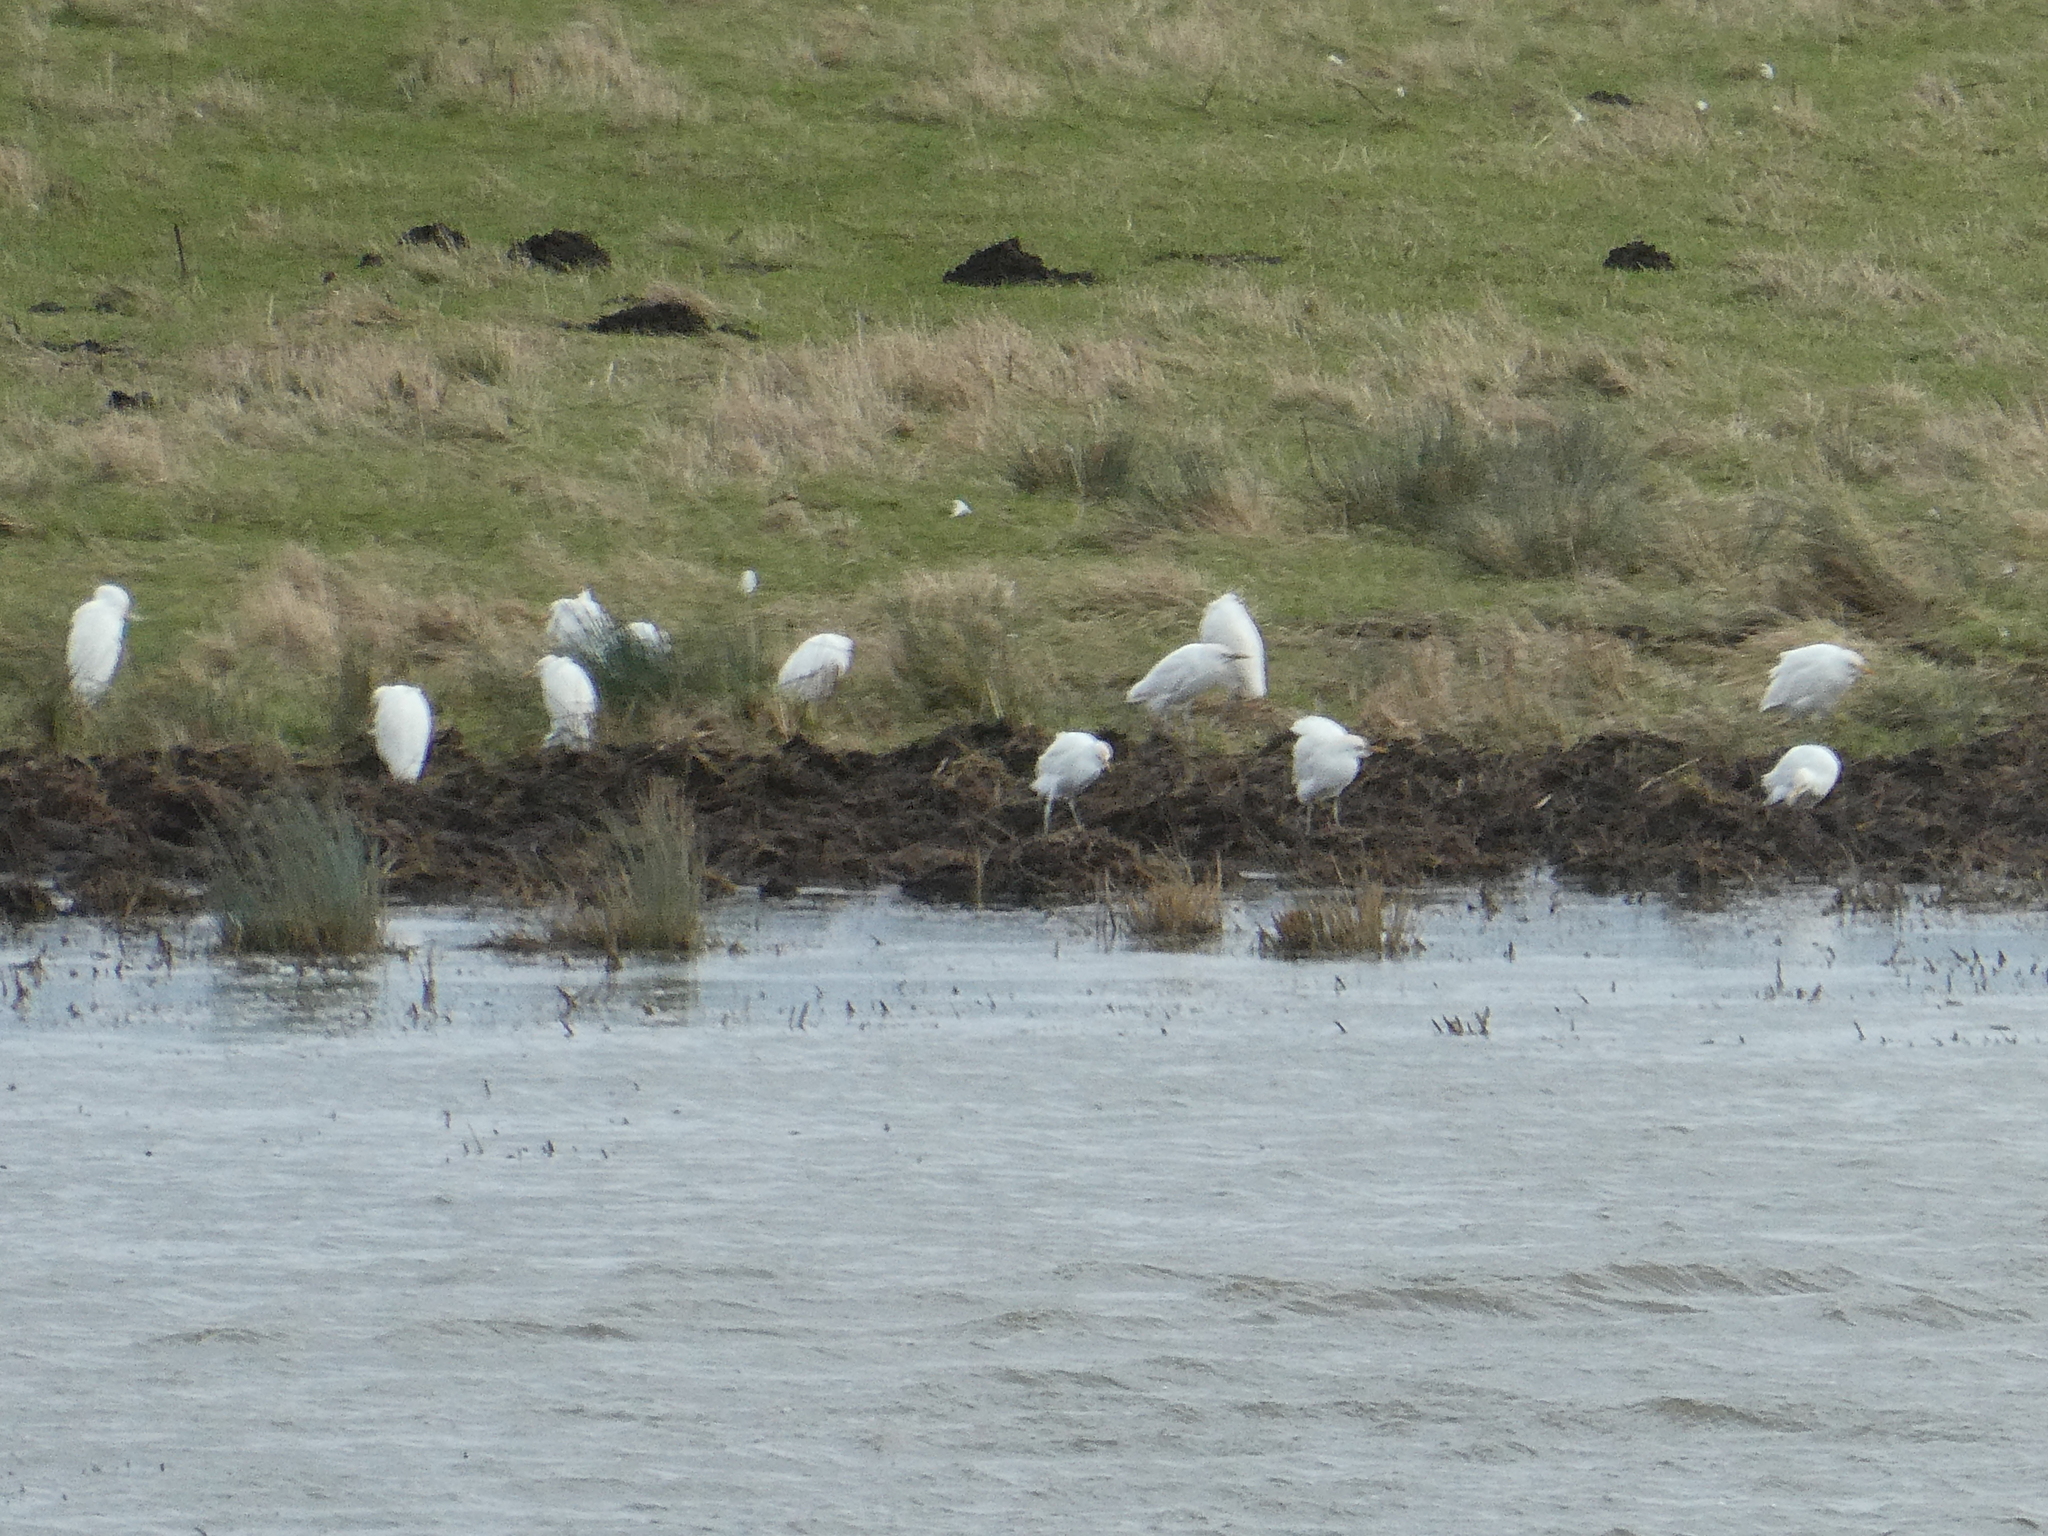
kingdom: Animalia
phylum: Chordata
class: Aves
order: Pelecaniformes
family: Ardeidae
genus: Bubulcus
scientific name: Bubulcus ibis
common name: Cattle egret
